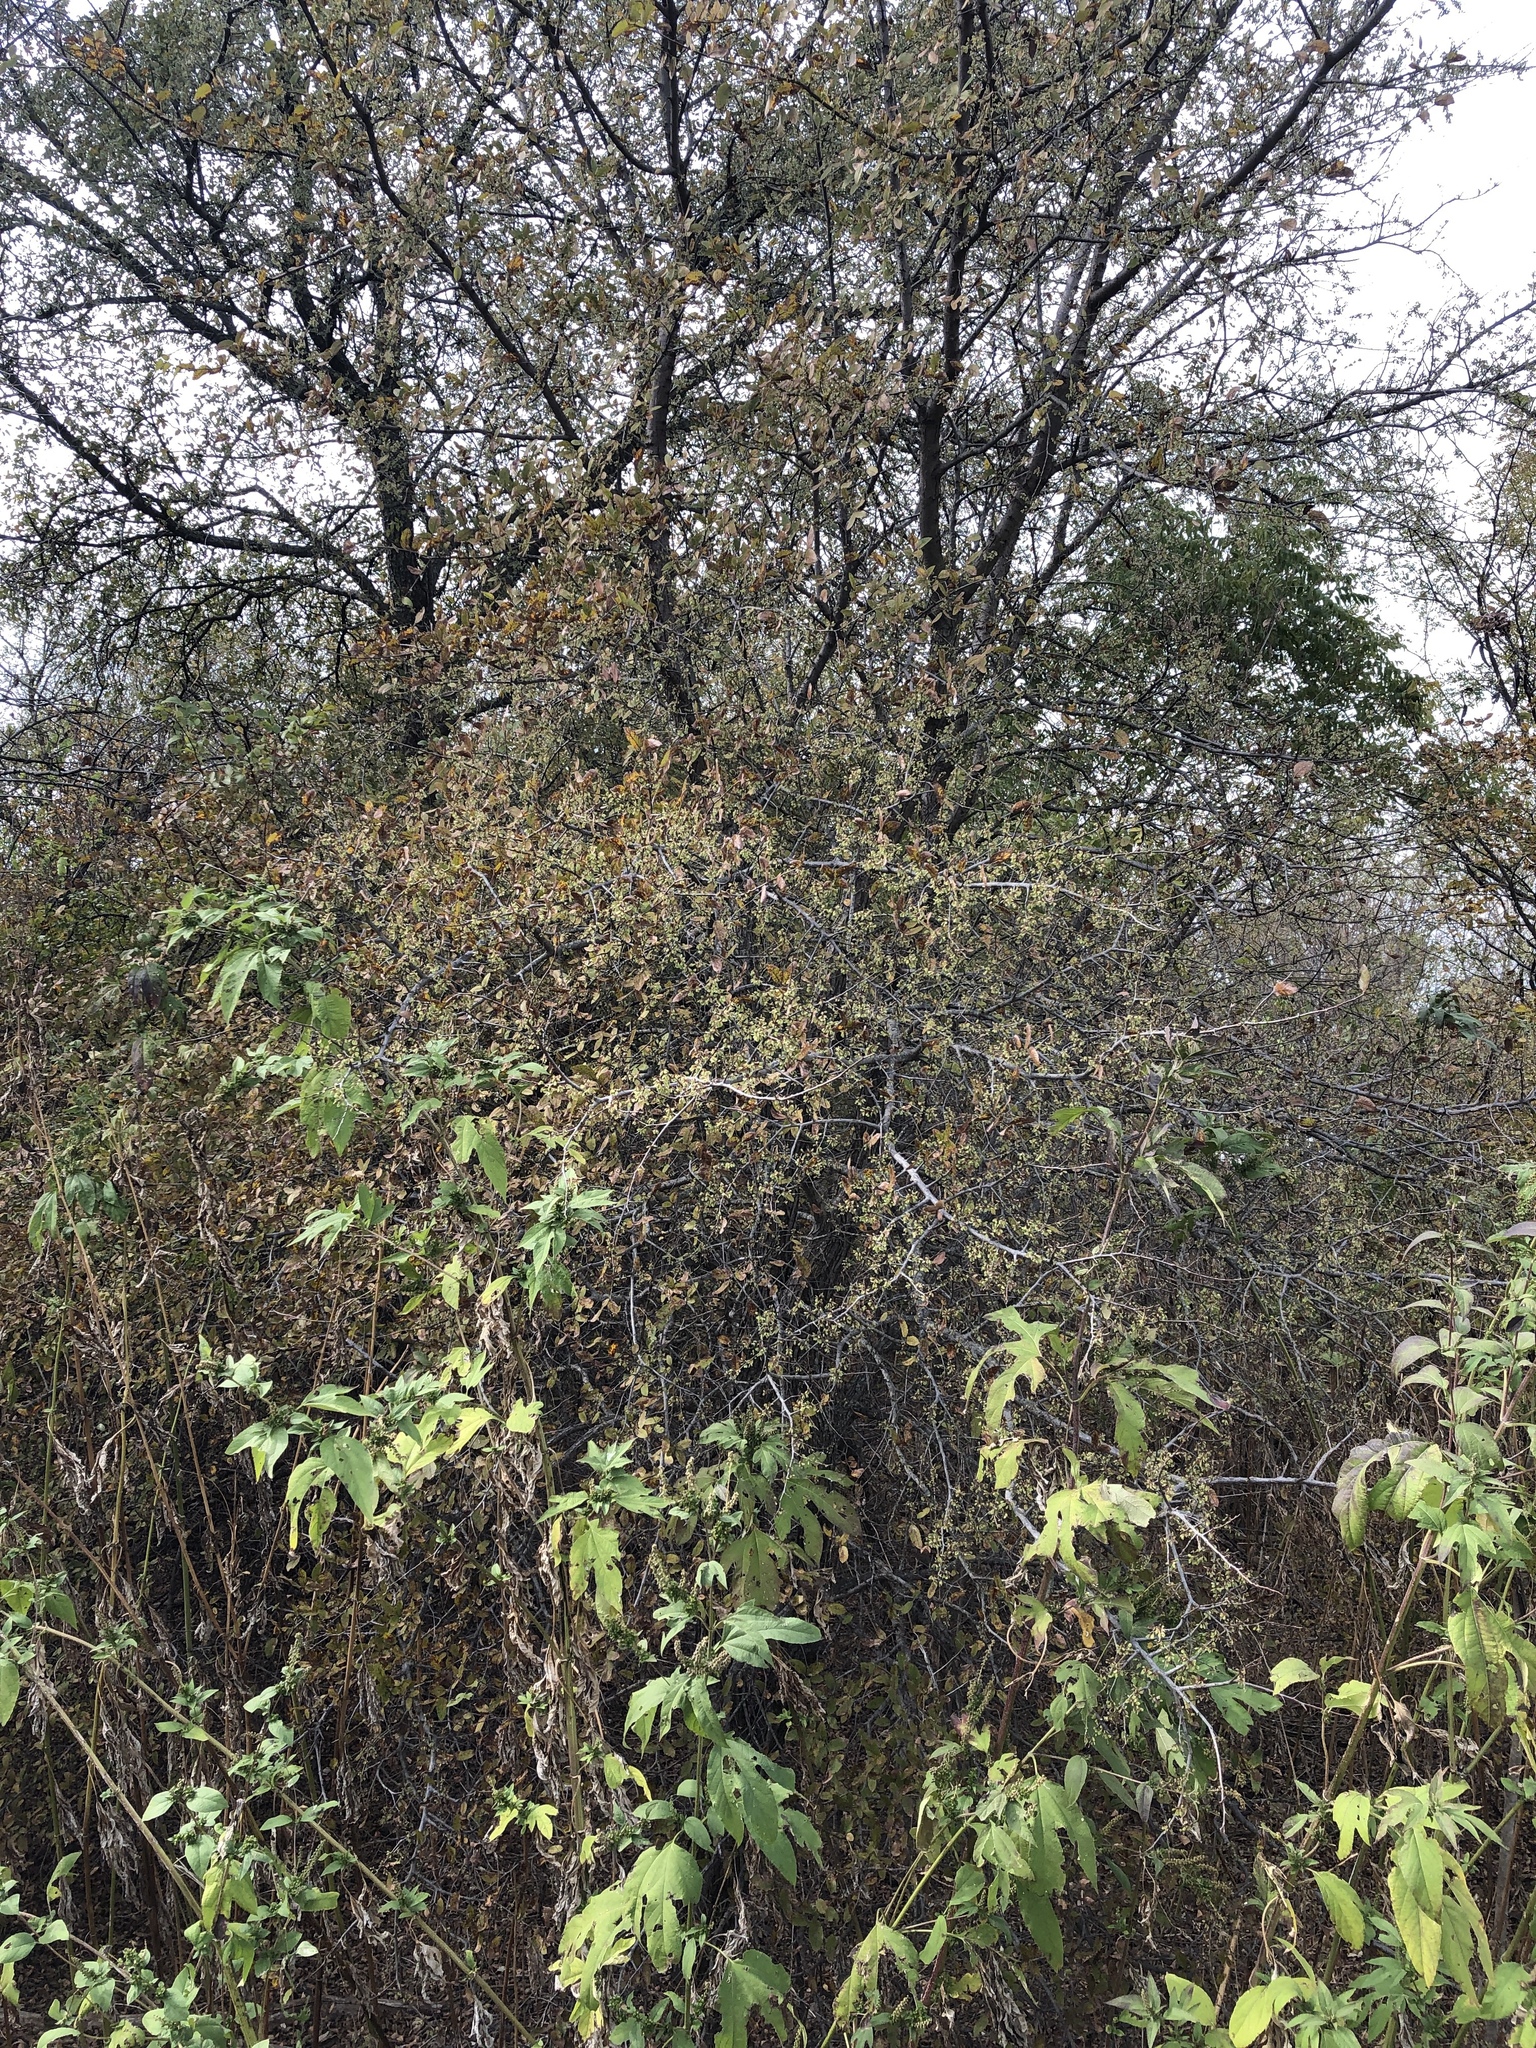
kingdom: Plantae
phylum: Tracheophyta
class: Magnoliopsida
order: Rosales
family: Ulmaceae
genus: Ulmus
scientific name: Ulmus crassifolia
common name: Basket elm
